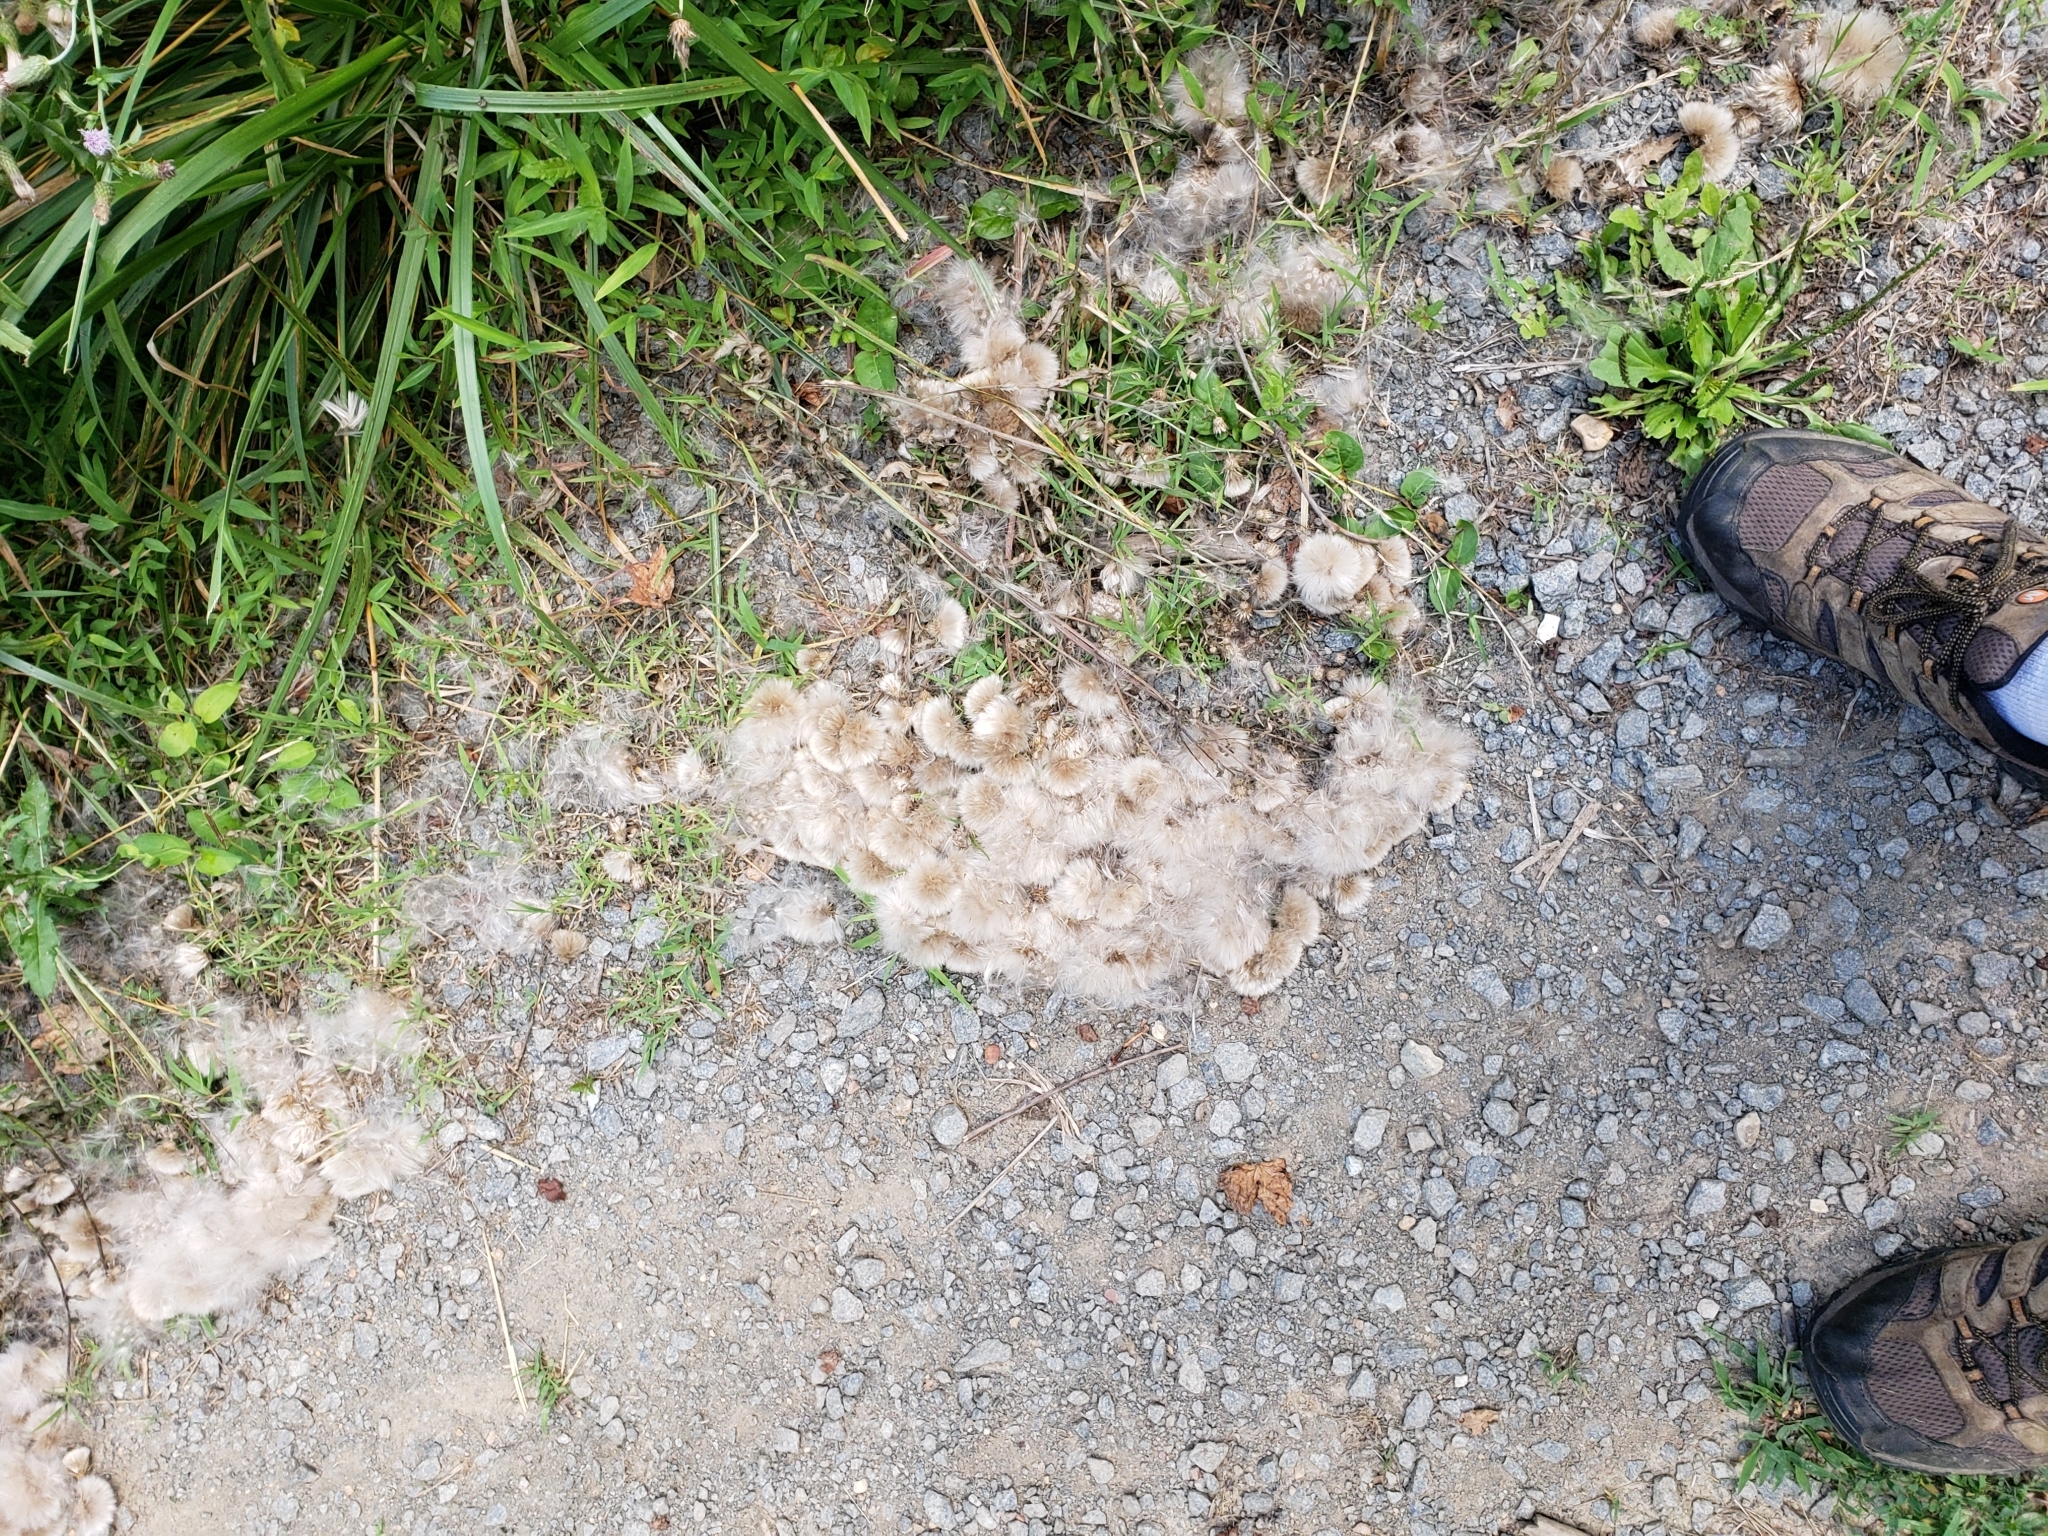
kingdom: Plantae
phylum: Tracheophyta
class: Magnoliopsida
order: Asterales
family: Asteraceae
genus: Cirsium
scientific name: Cirsium arvense
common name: Creeping thistle
